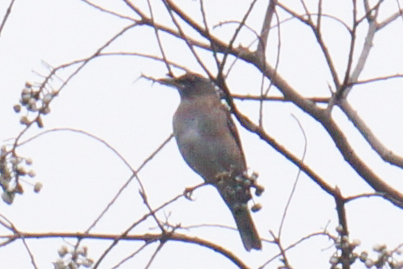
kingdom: Animalia
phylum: Chordata
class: Aves
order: Passeriformes
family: Turdidae
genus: Turdus
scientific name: Turdus pallidus
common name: Pale thrush
